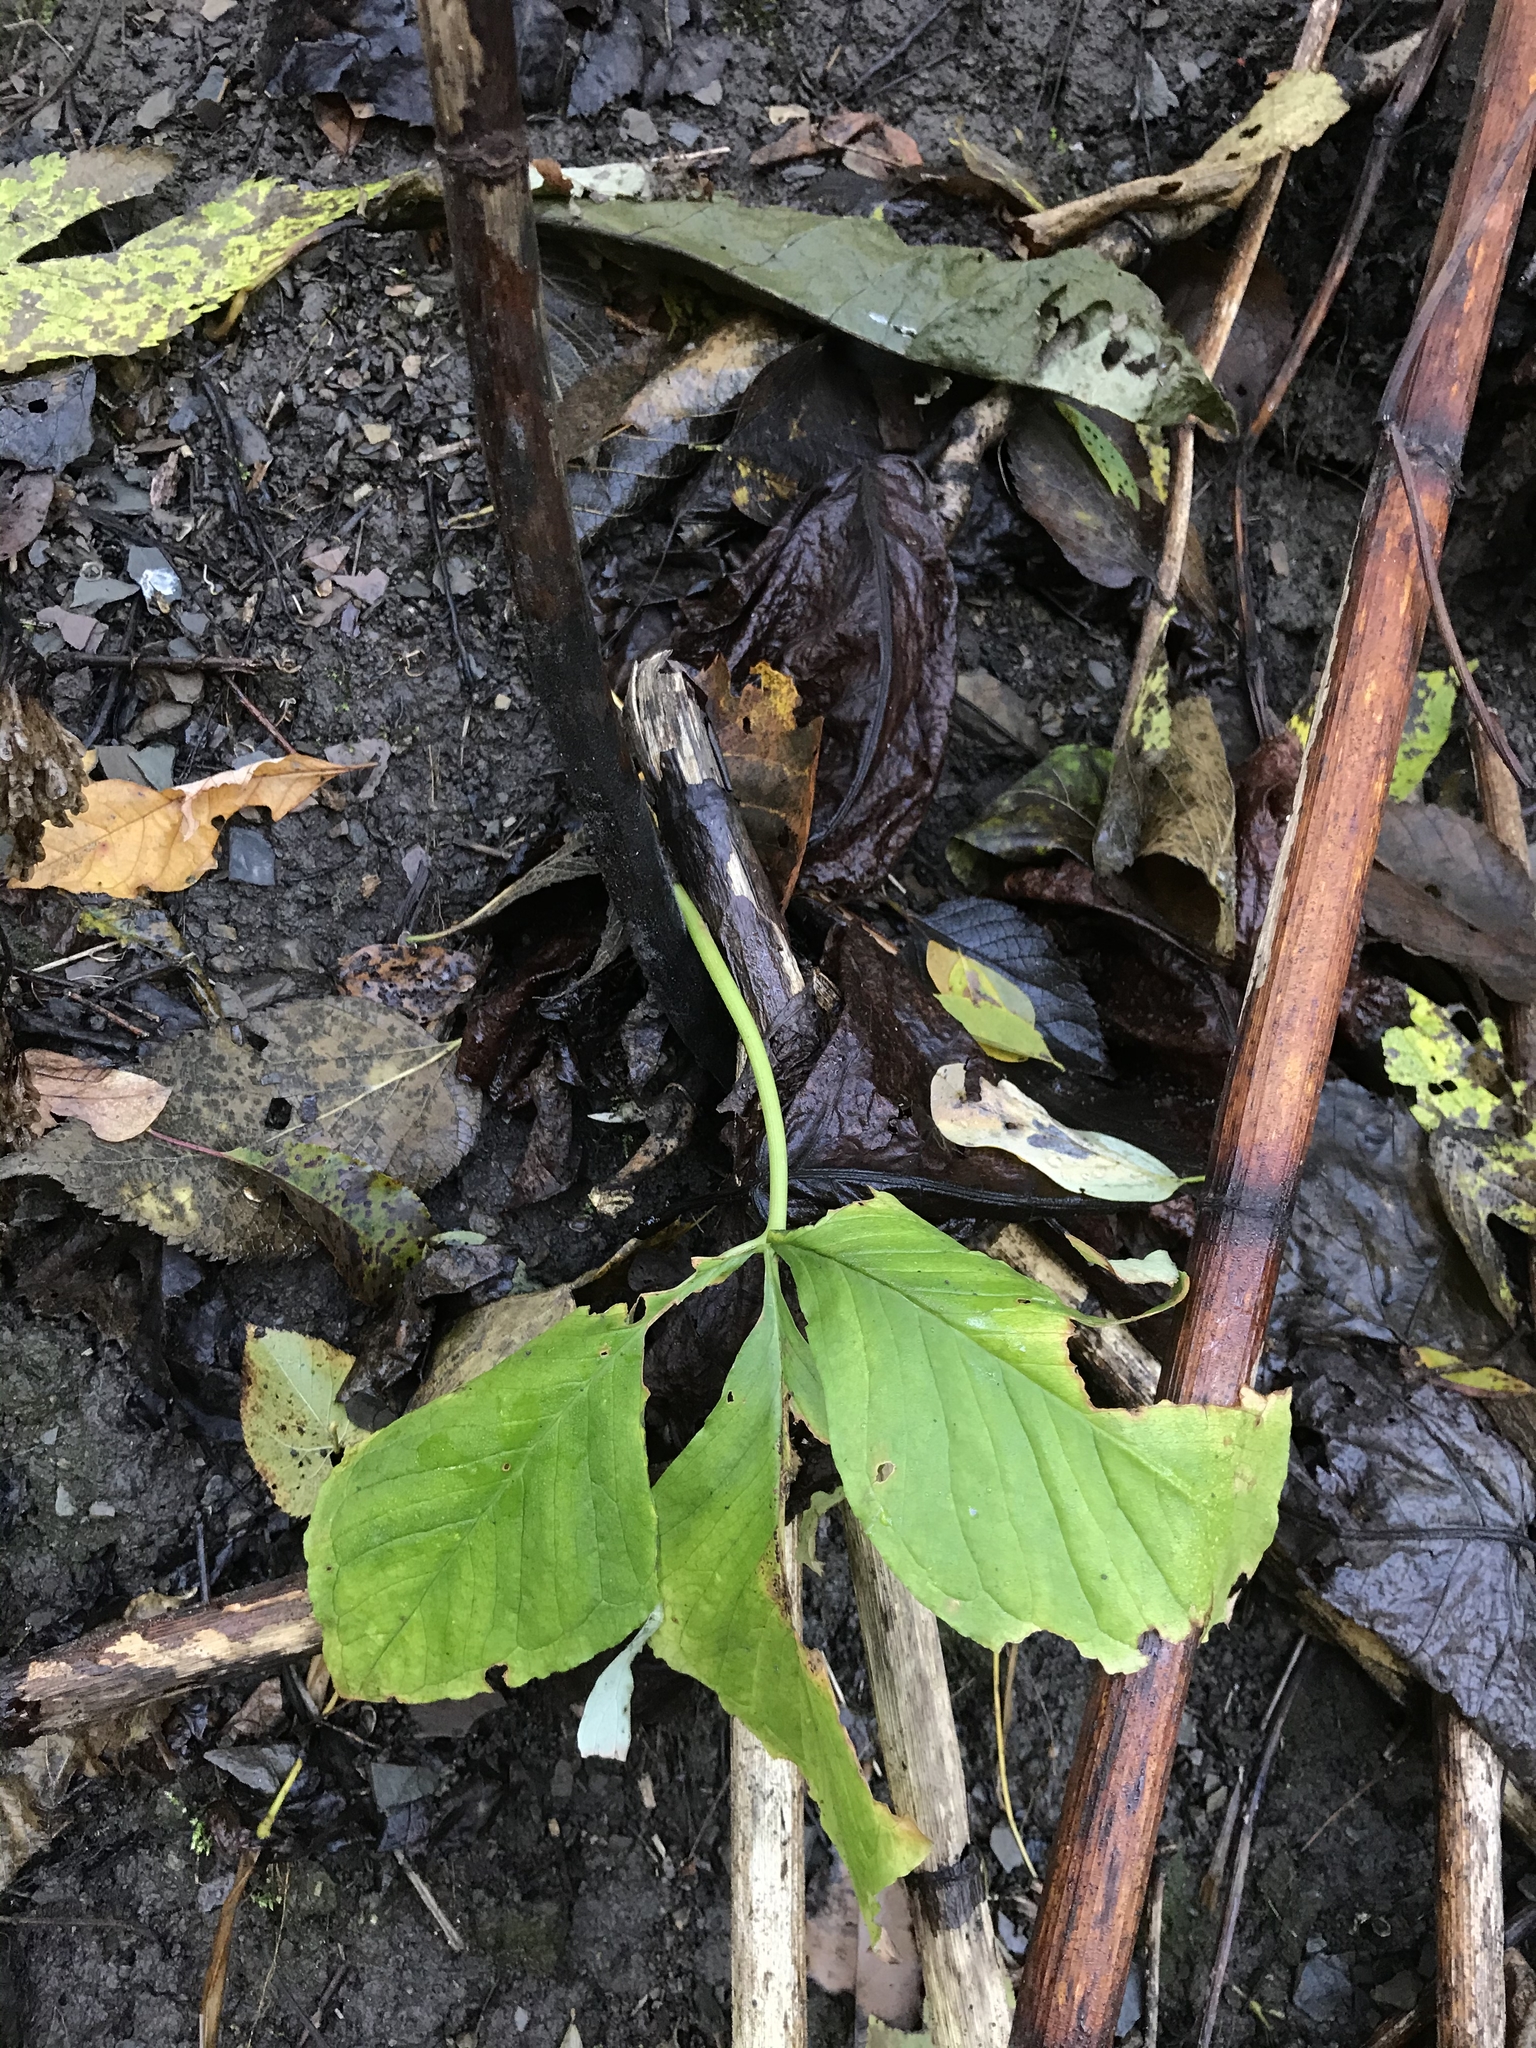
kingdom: Plantae
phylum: Tracheophyta
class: Liliopsida
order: Alismatales
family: Araceae
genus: Arisaema
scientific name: Arisaema triphyllum
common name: Jack-in-the-pulpit
